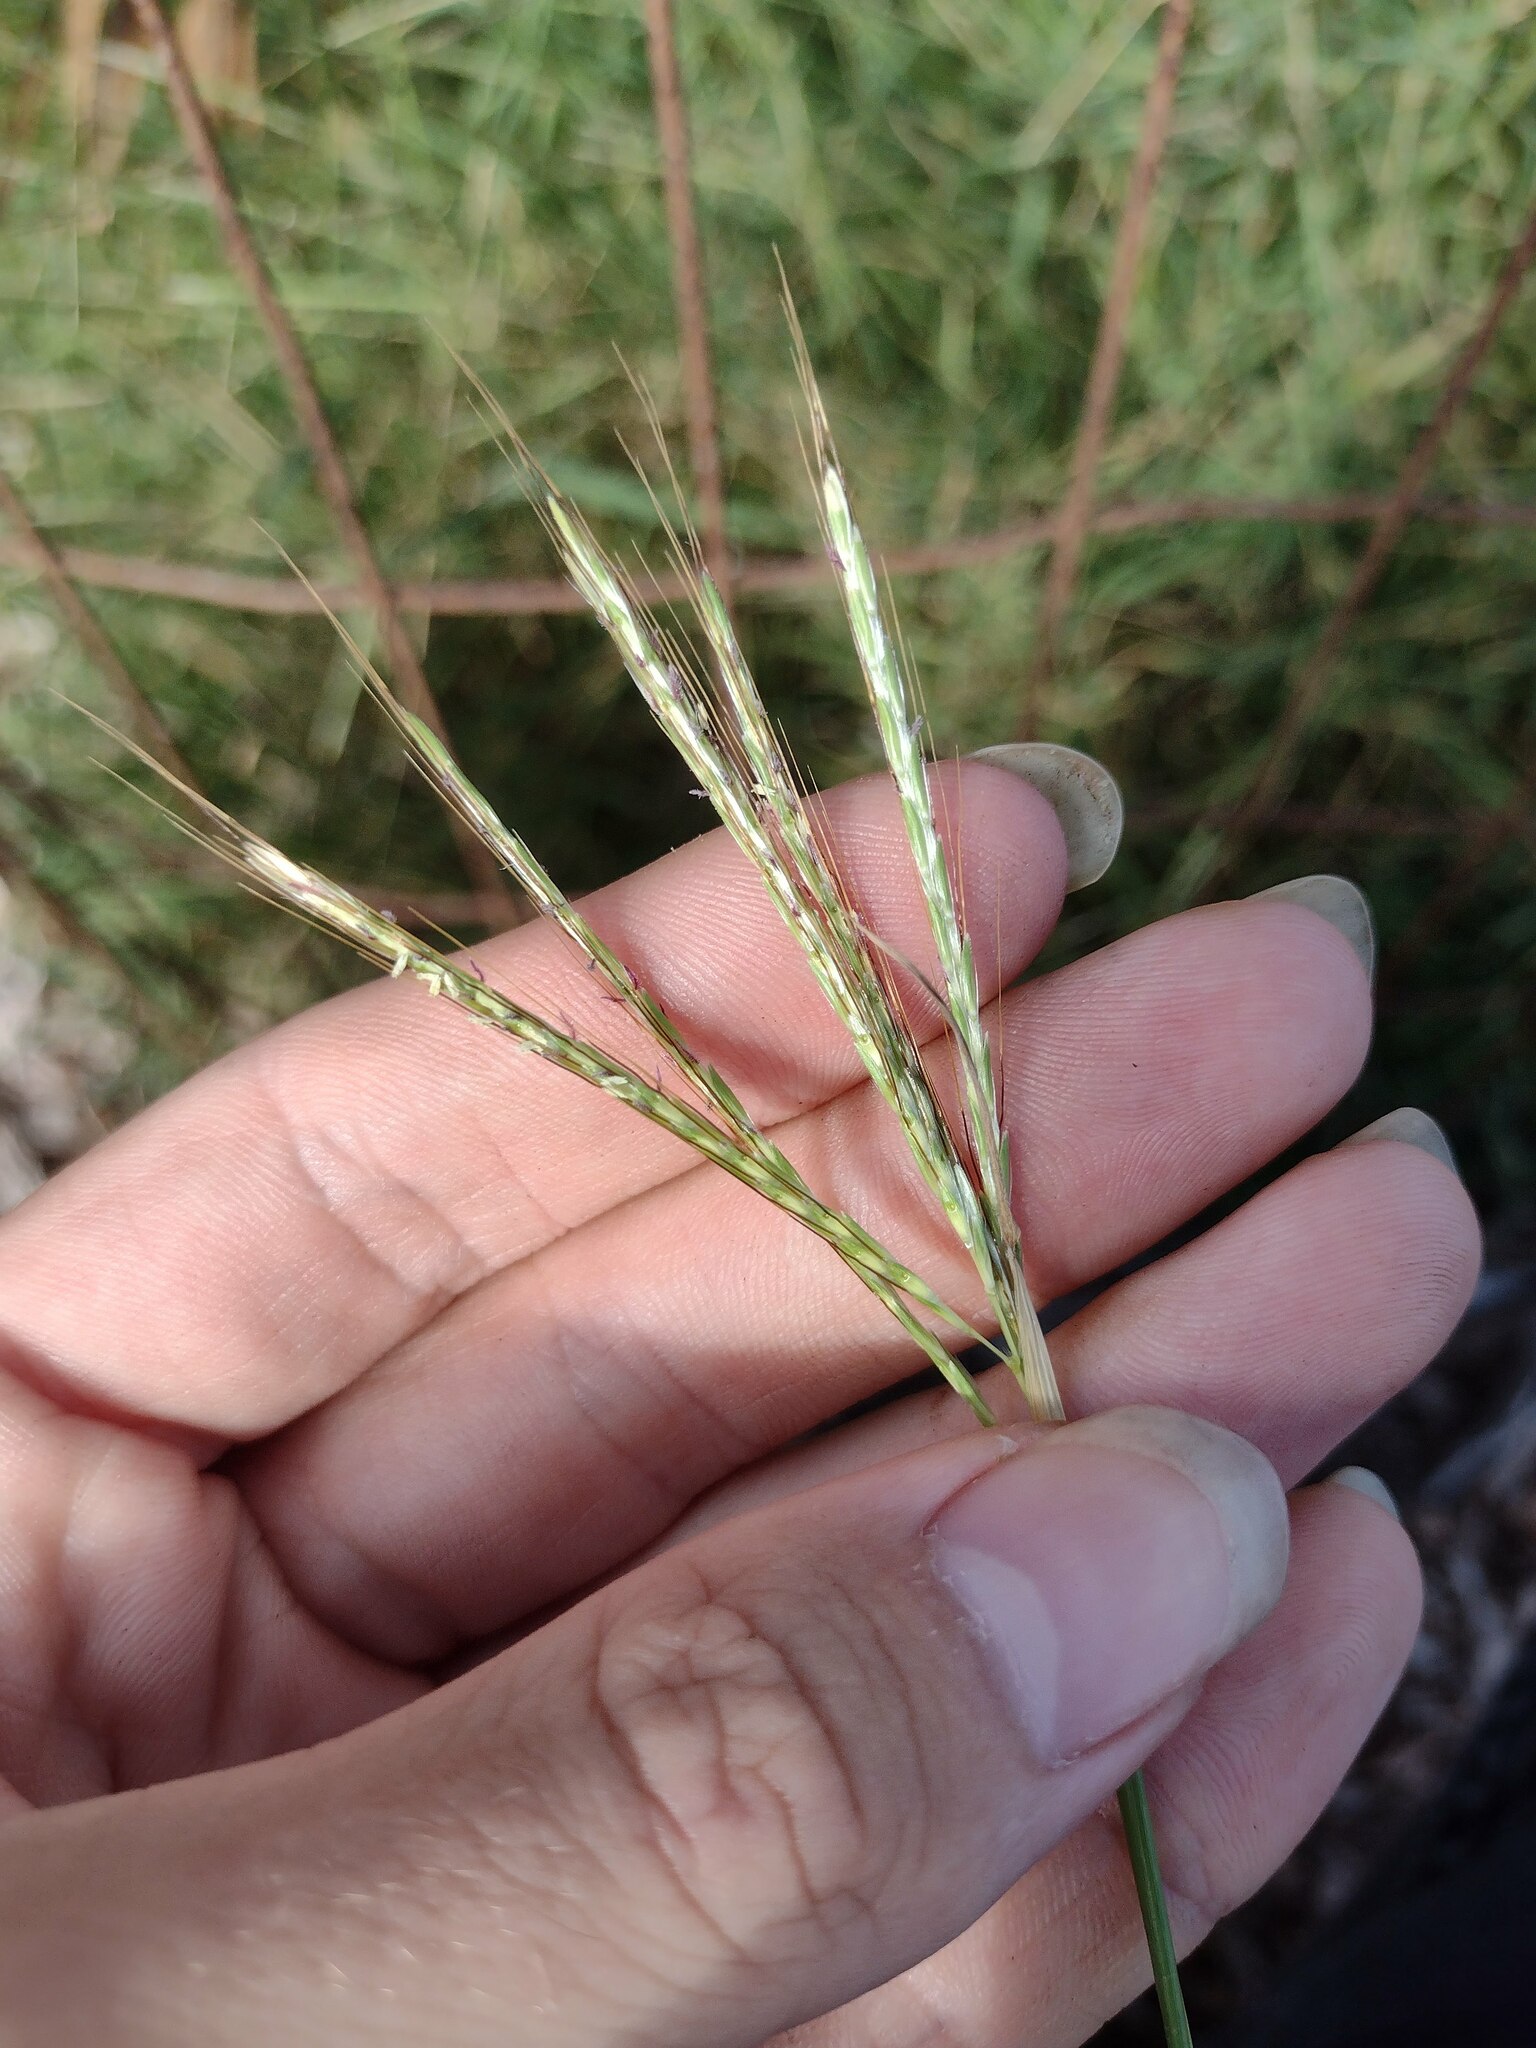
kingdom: Plantae
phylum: Tracheophyta
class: Liliopsida
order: Poales
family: Poaceae
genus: Bothriochloa
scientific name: Bothriochloa pertusa
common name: Pitted beardgrass
